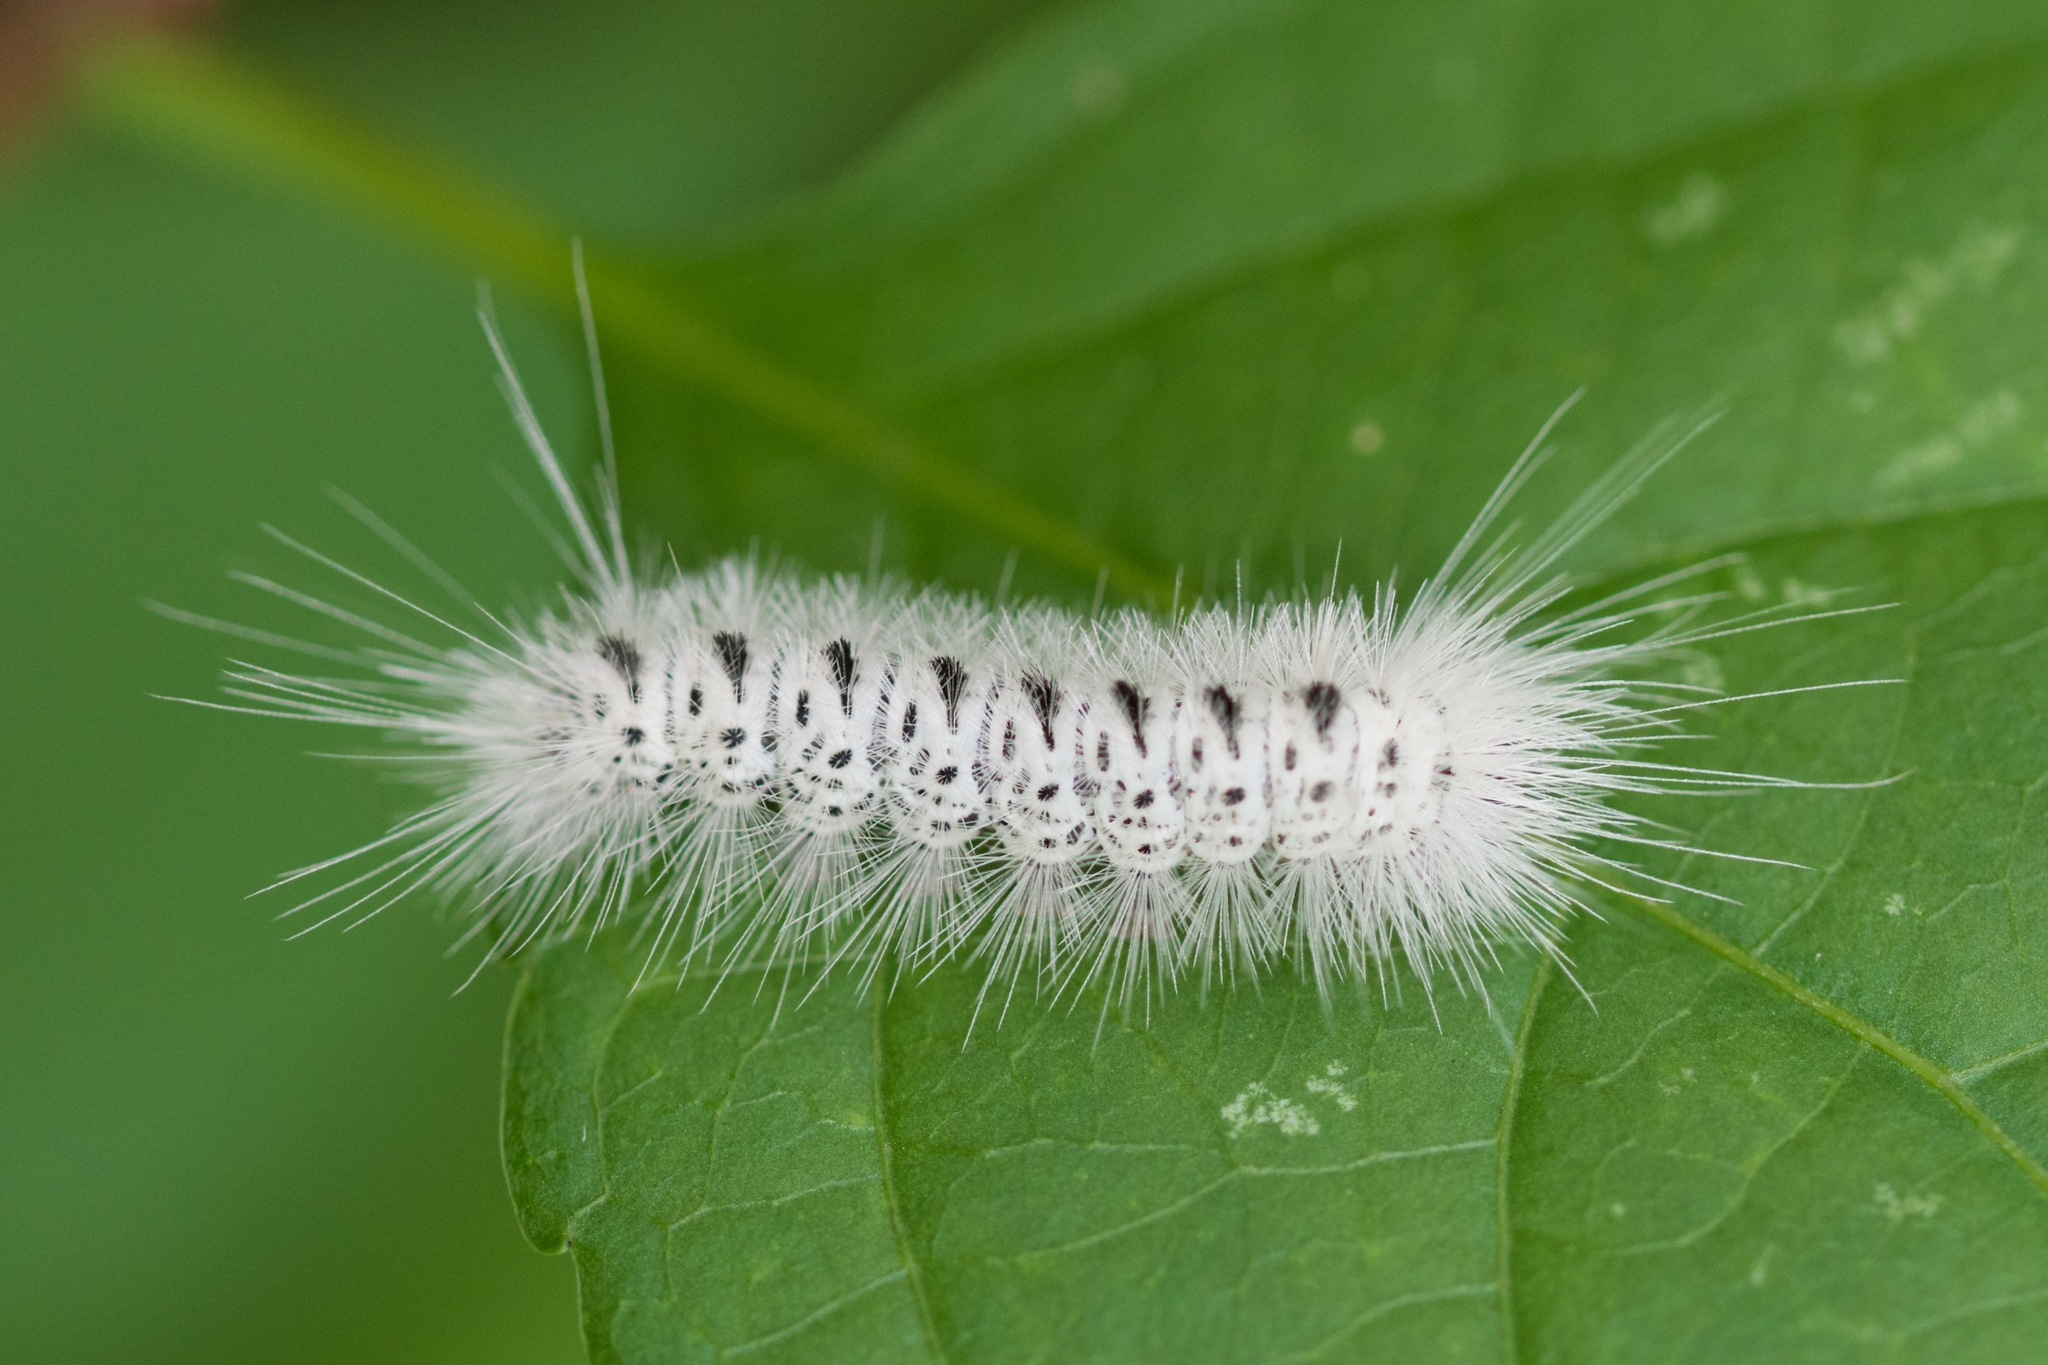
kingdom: Animalia
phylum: Arthropoda
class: Insecta
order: Lepidoptera
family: Erebidae
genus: Lophocampa
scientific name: Lophocampa caryae
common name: Hickory tussock moth
